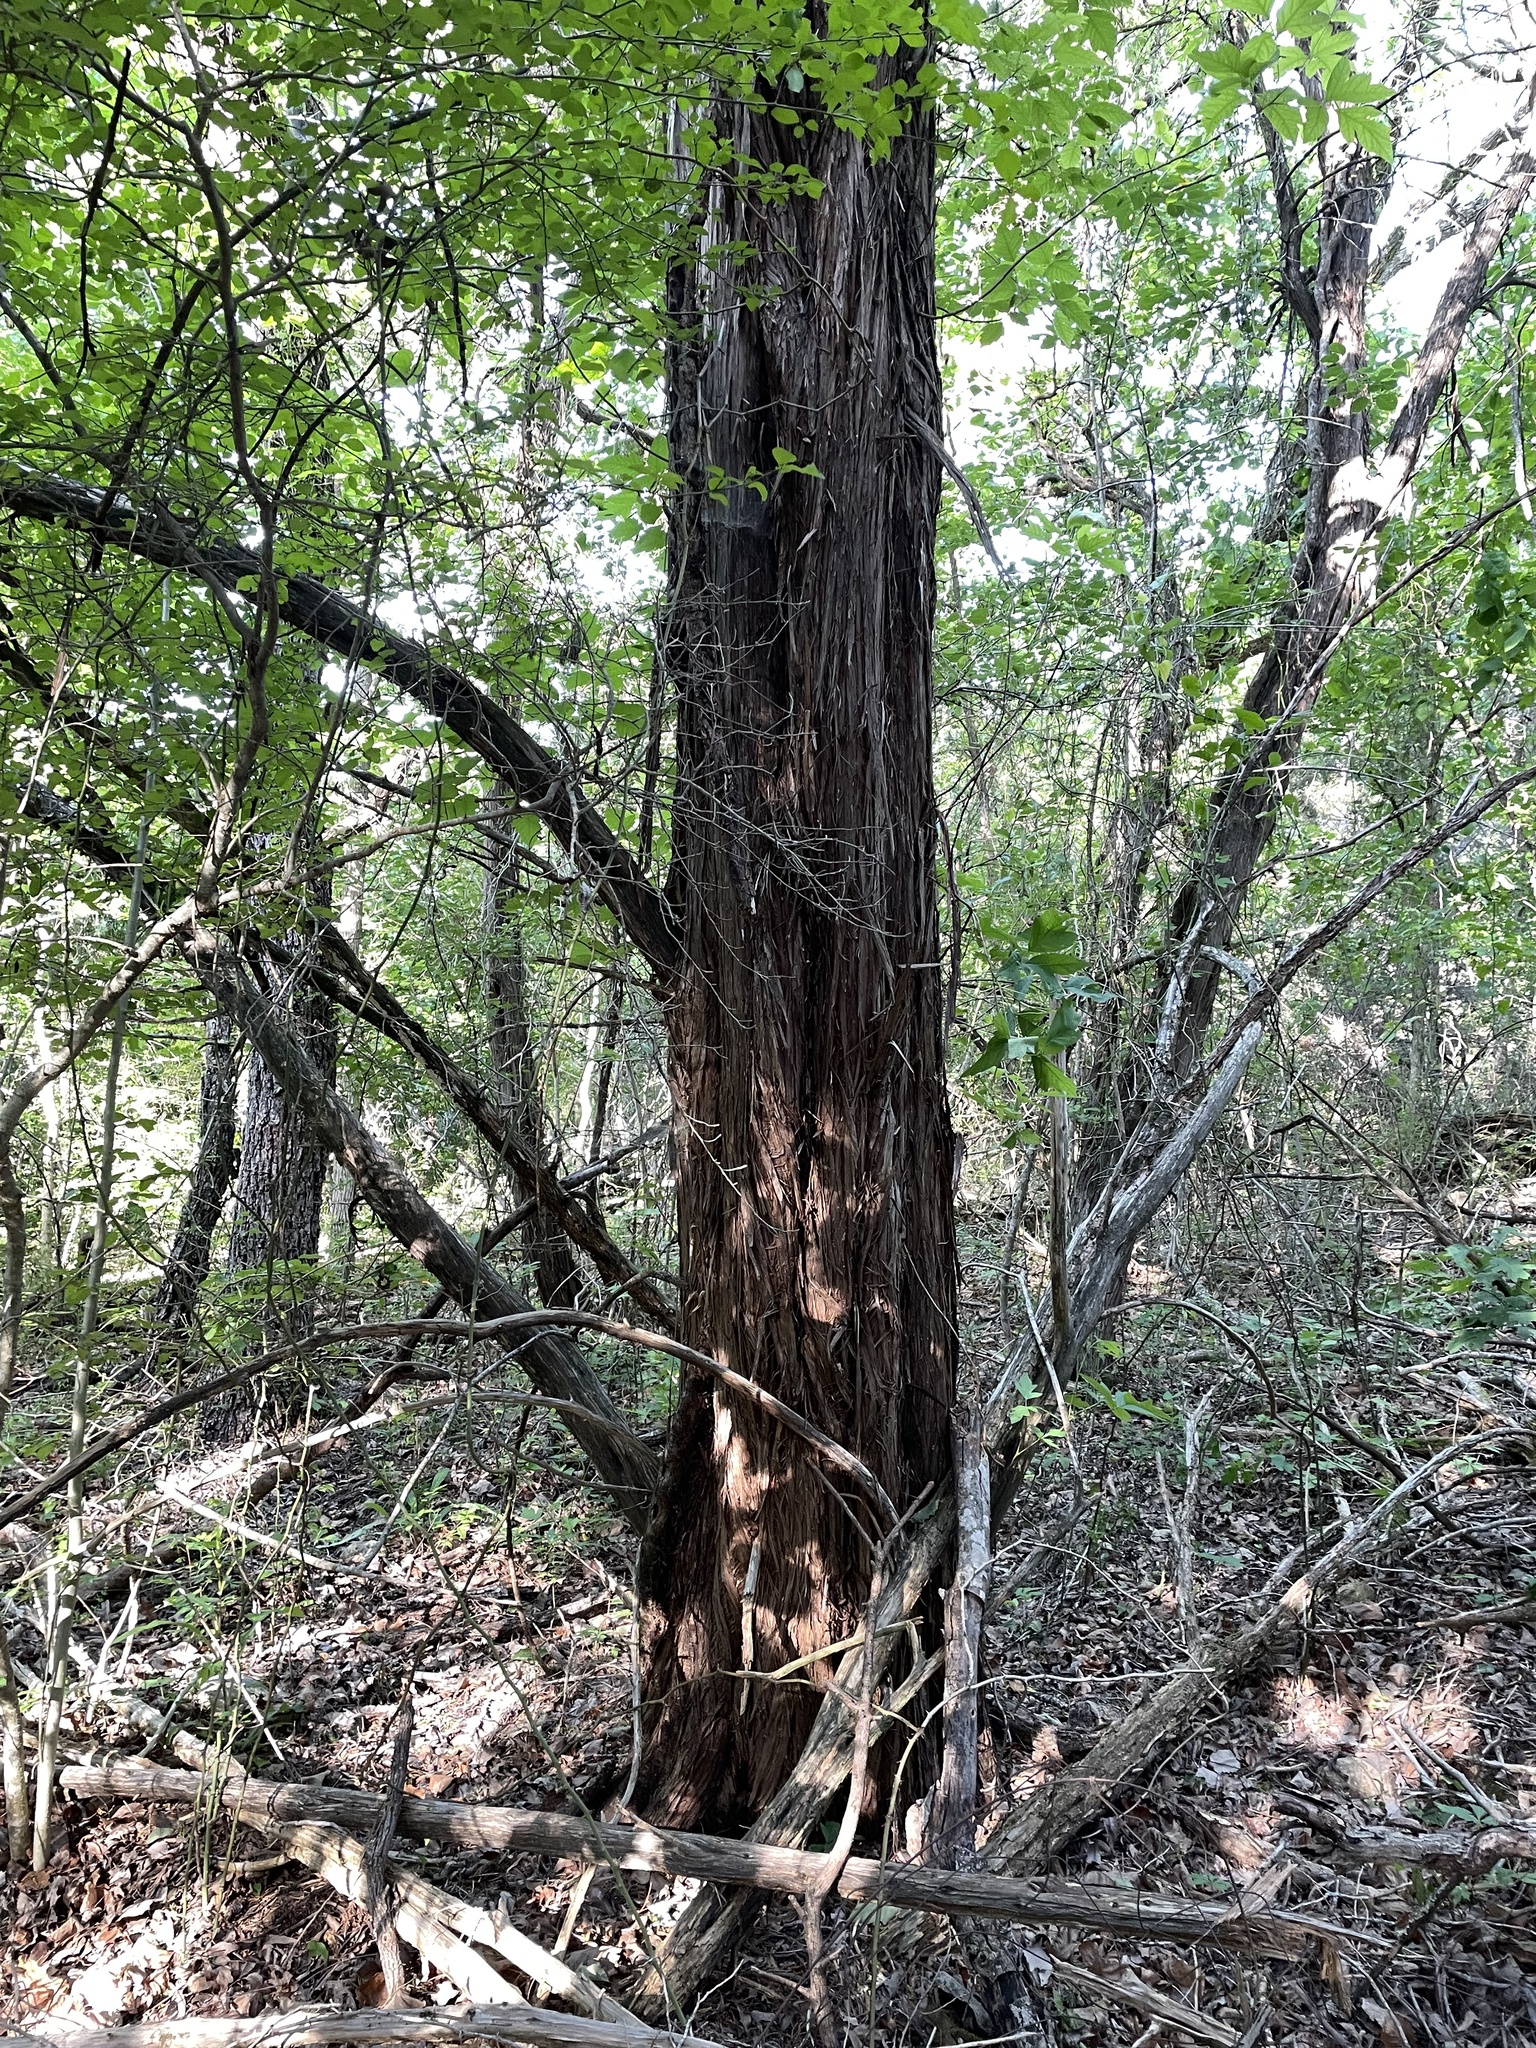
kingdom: Plantae
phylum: Tracheophyta
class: Pinopsida
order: Pinales
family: Cupressaceae
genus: Juniperus
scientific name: Juniperus ashei
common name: Mexican juniper
